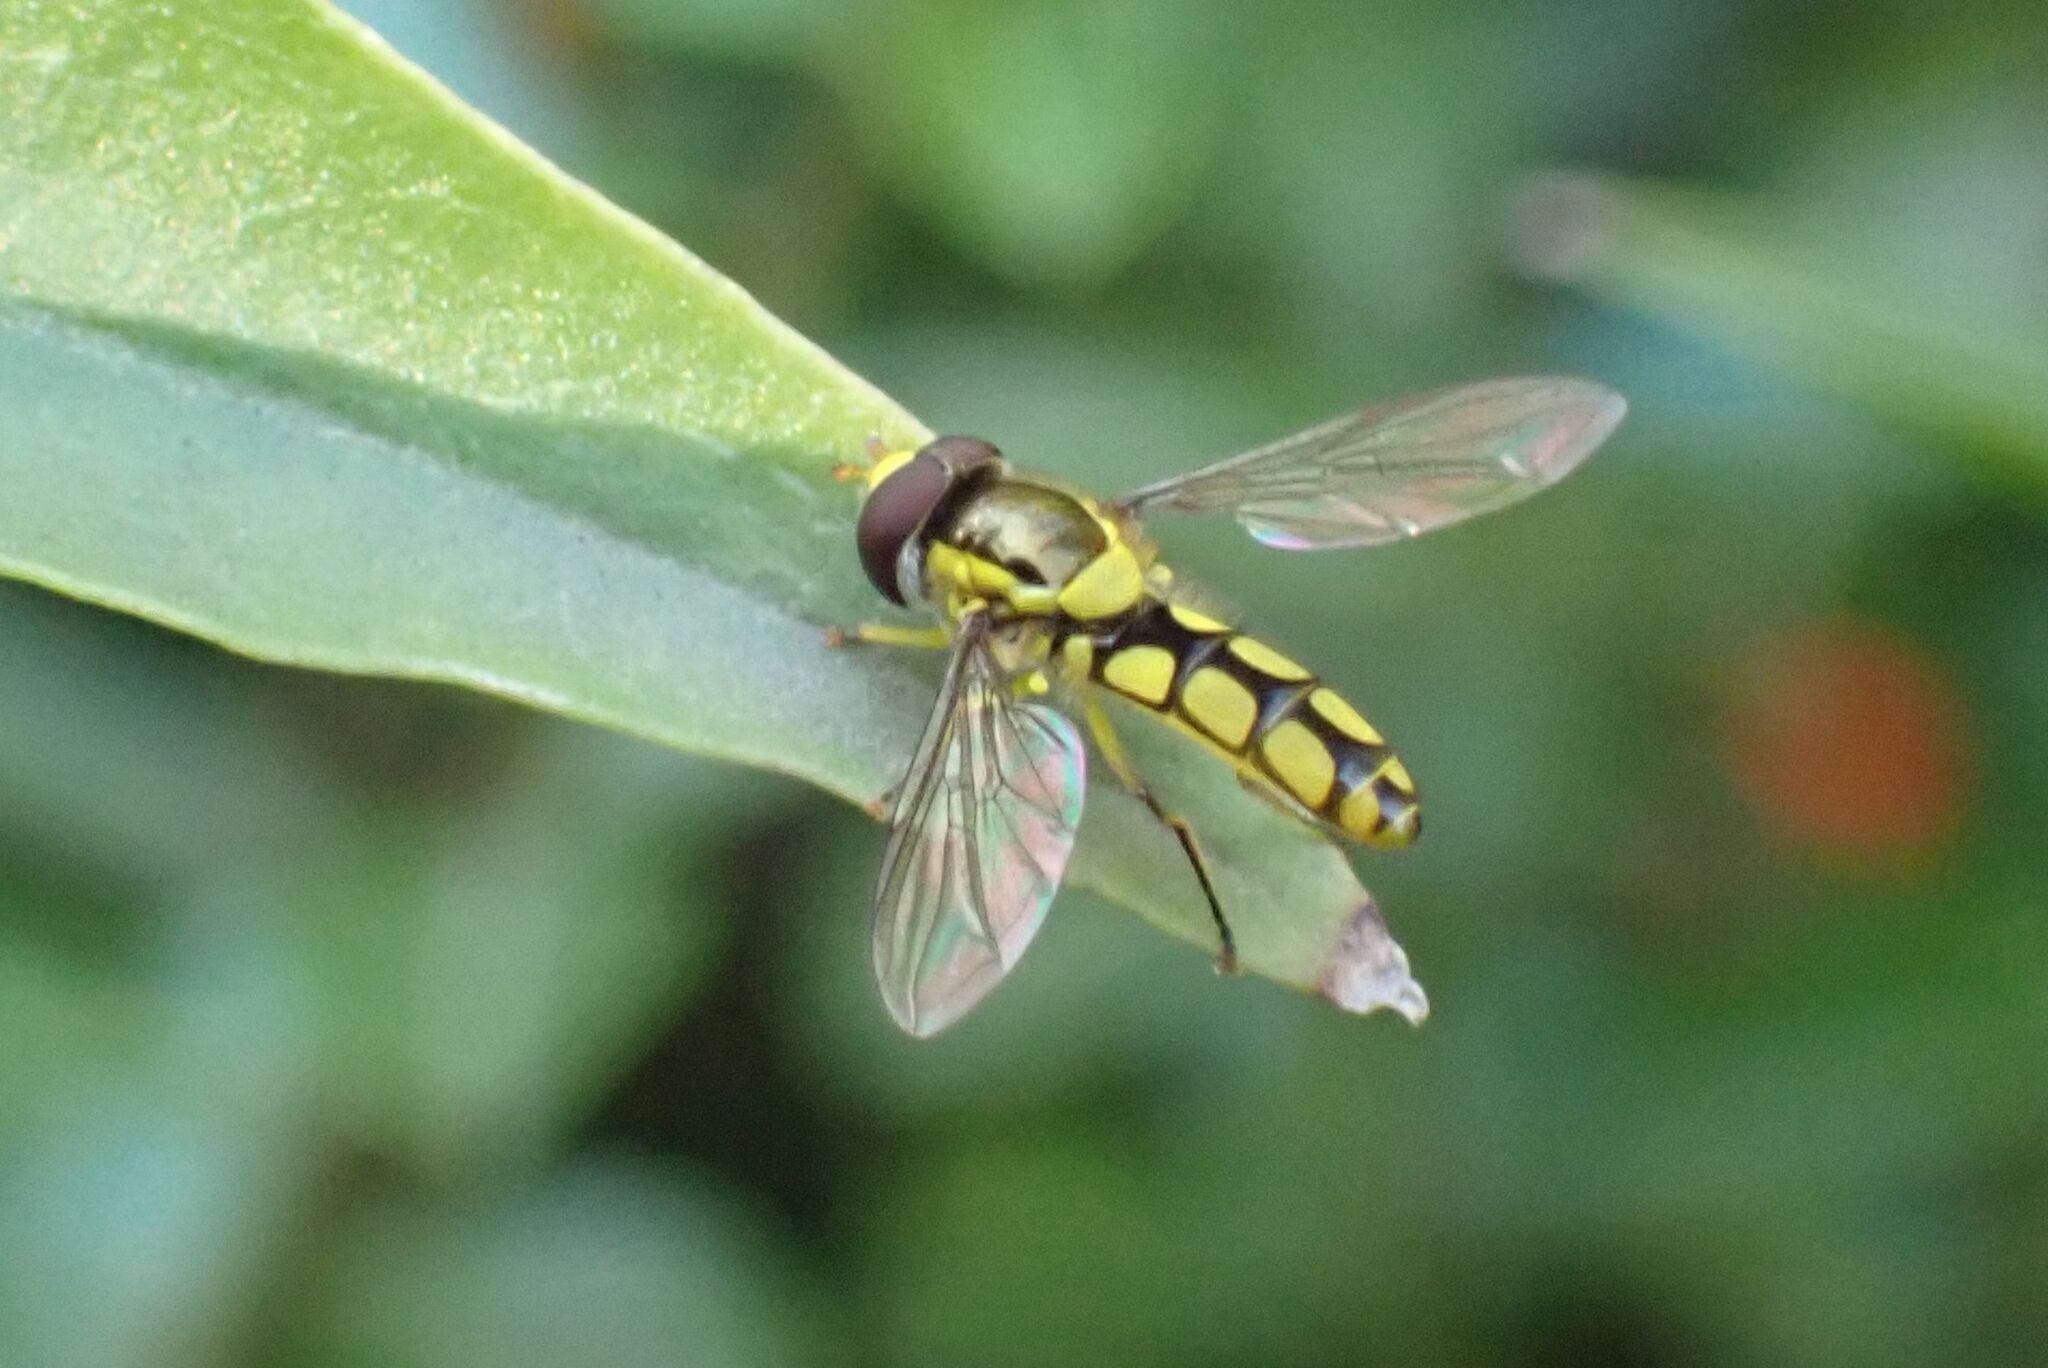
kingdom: Animalia
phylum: Arthropoda
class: Insecta
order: Diptera
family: Syrphidae
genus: Allograpta
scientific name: Allograpta calopa
